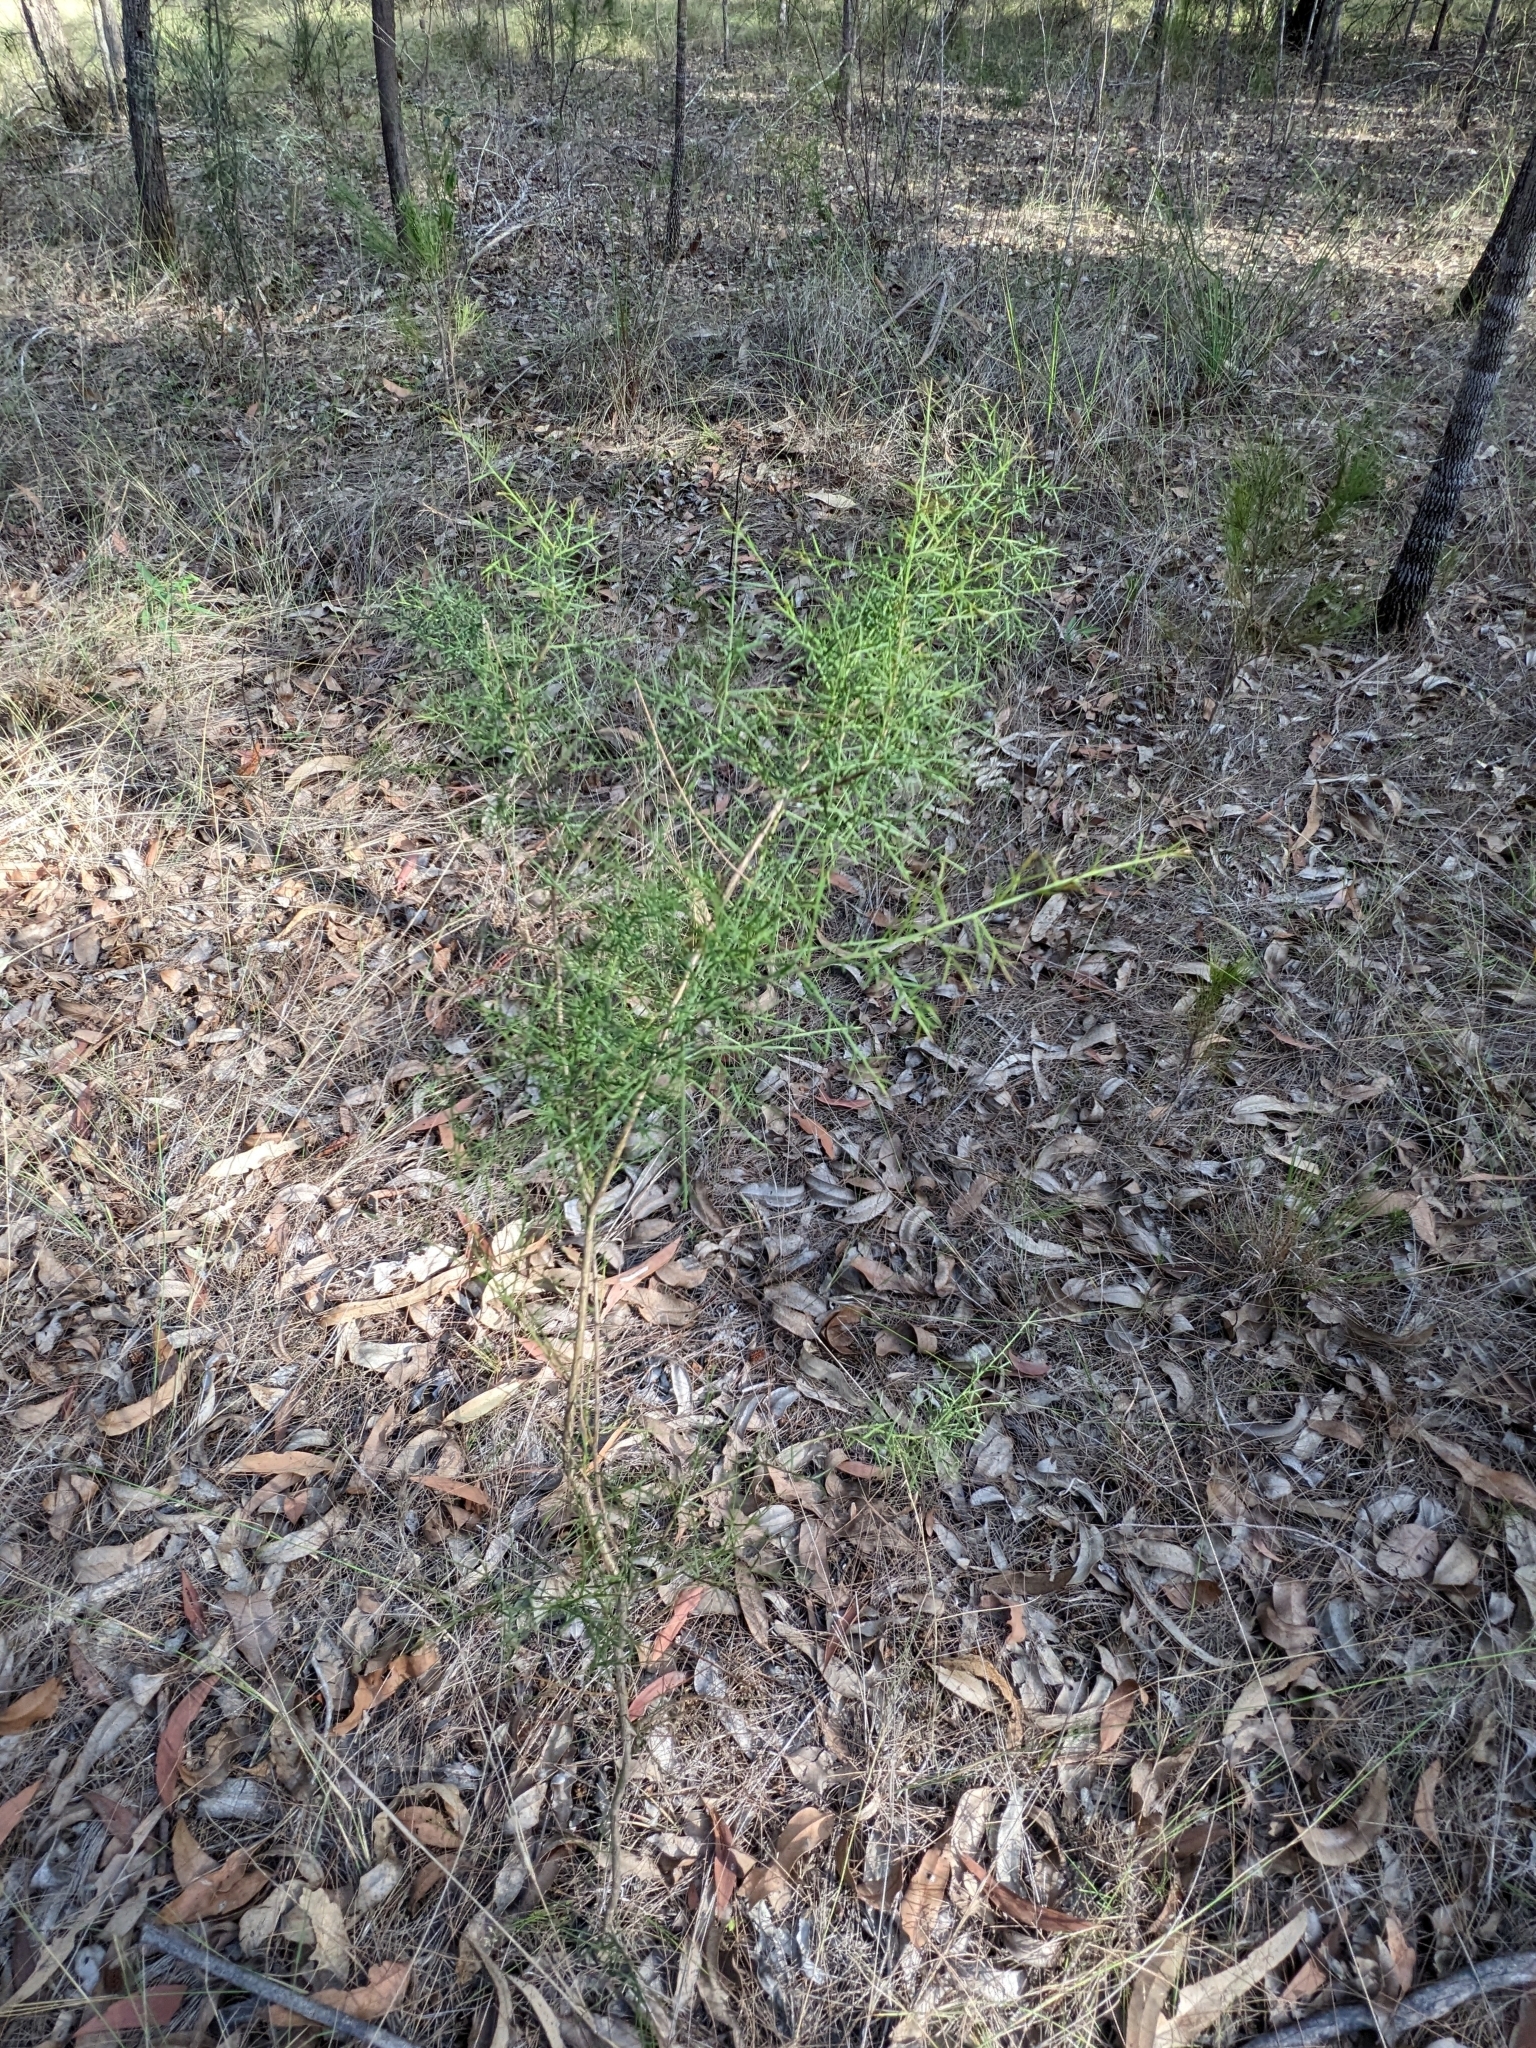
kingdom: Plantae
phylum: Tracheophyta
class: Magnoliopsida
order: Fabales
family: Fabaceae
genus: Daviesia
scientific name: Daviesia ulicifolia
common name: Gorse bitter-pea
